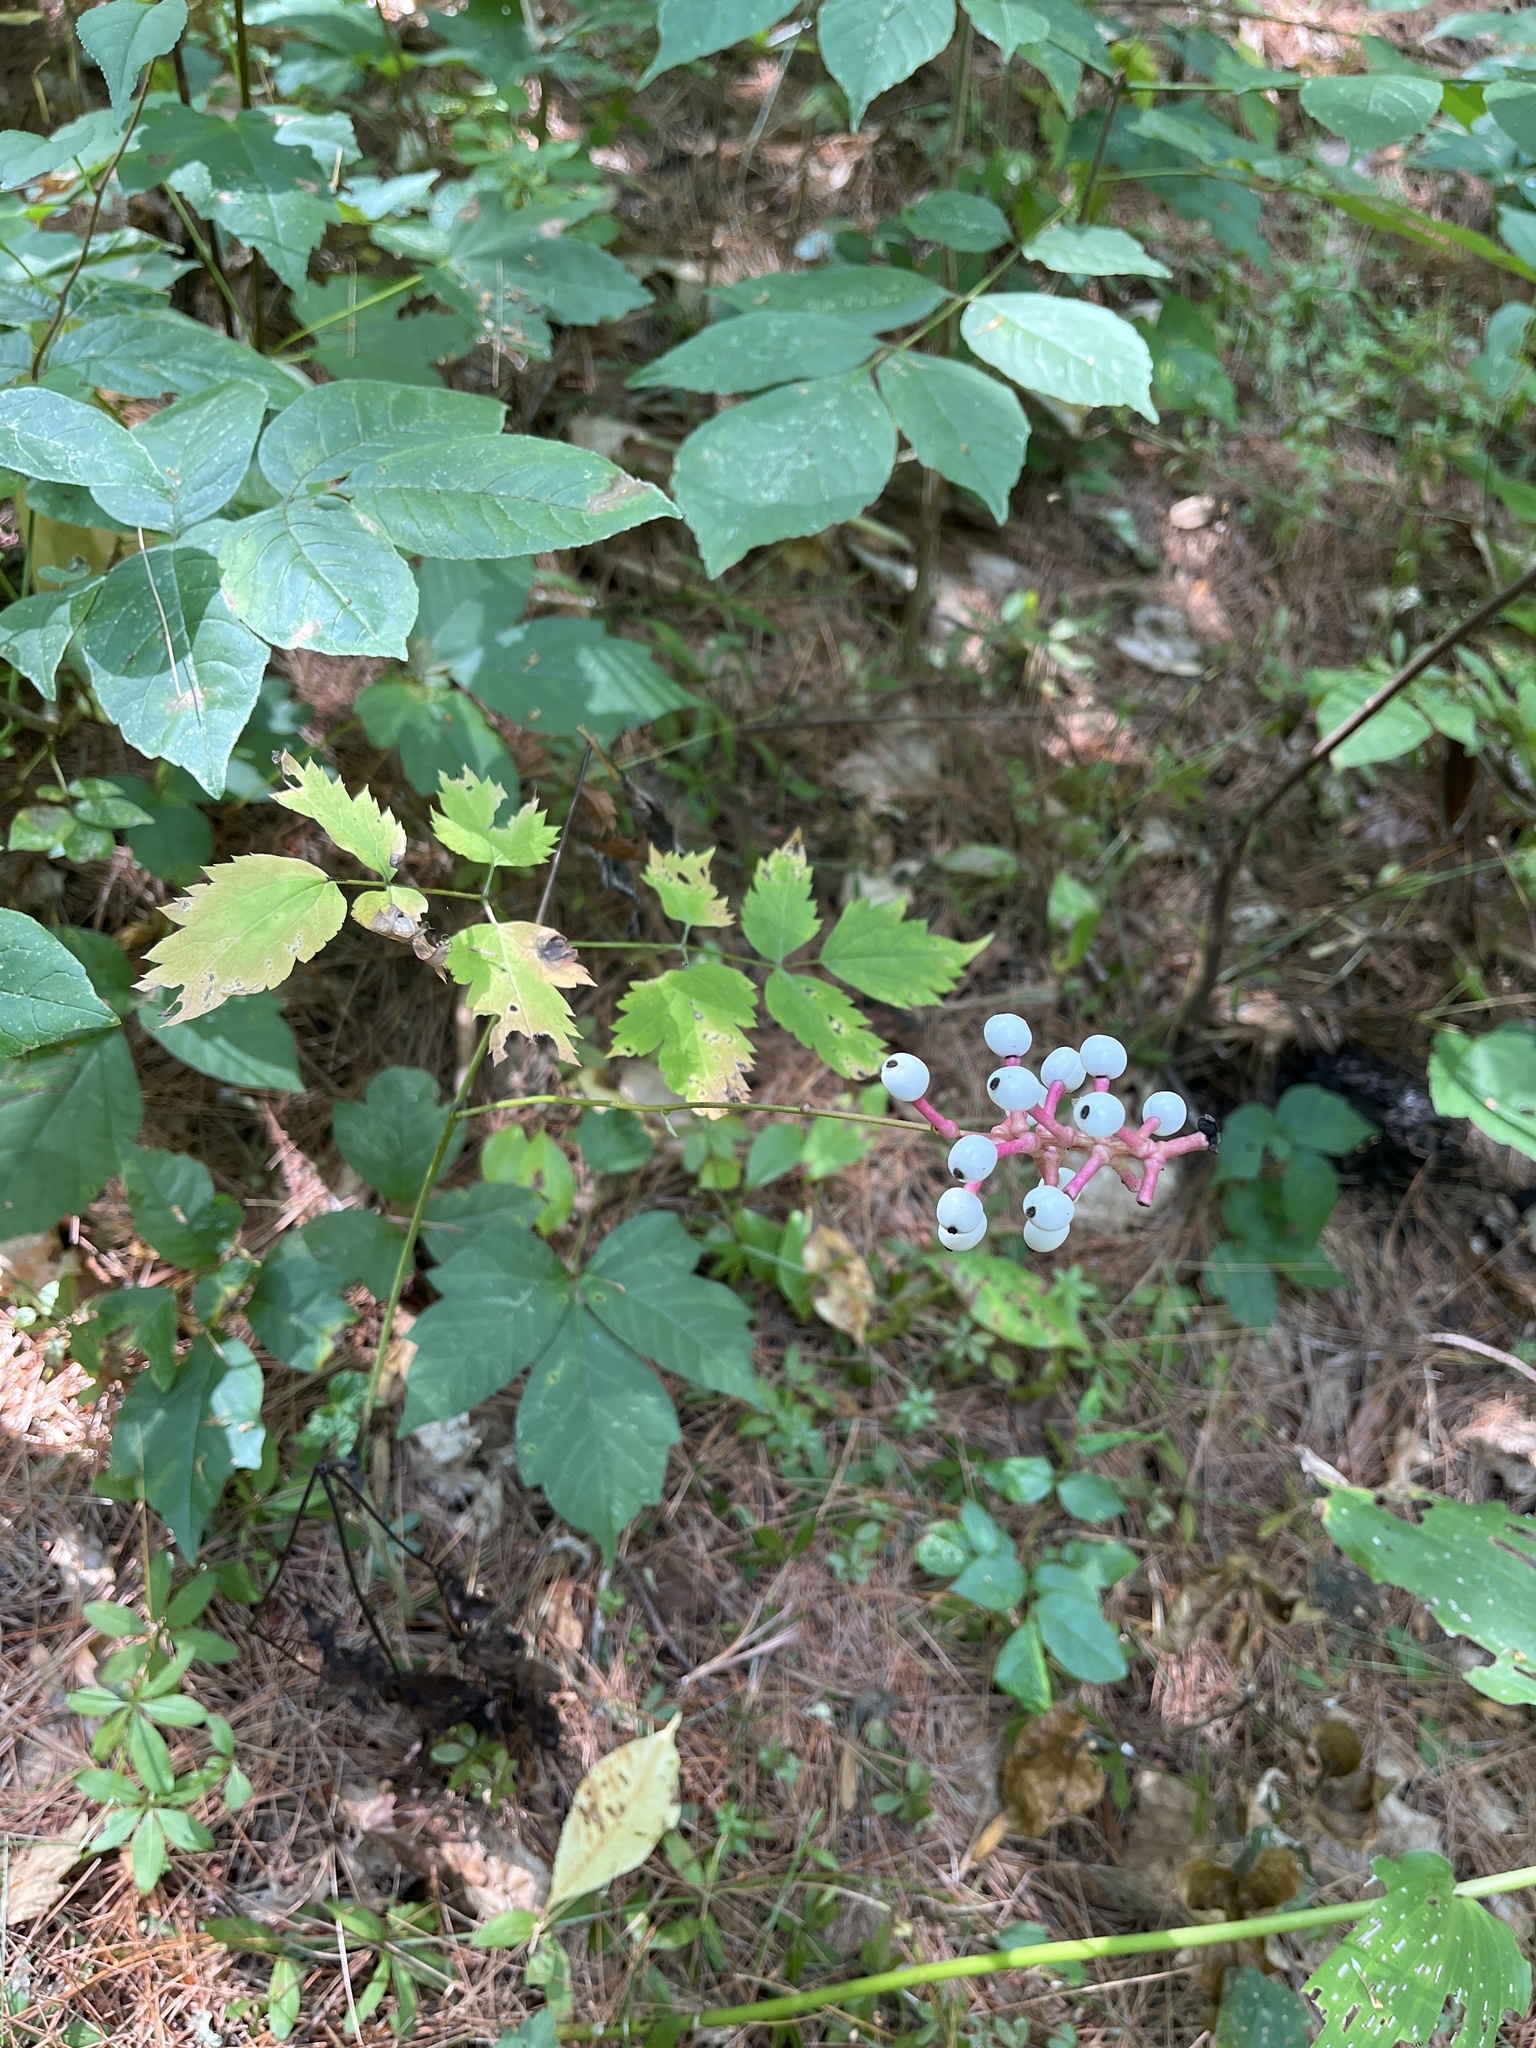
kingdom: Plantae
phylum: Tracheophyta
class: Magnoliopsida
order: Ranunculales
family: Ranunculaceae
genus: Actaea
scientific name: Actaea pachypoda
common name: Doll's-eyes
